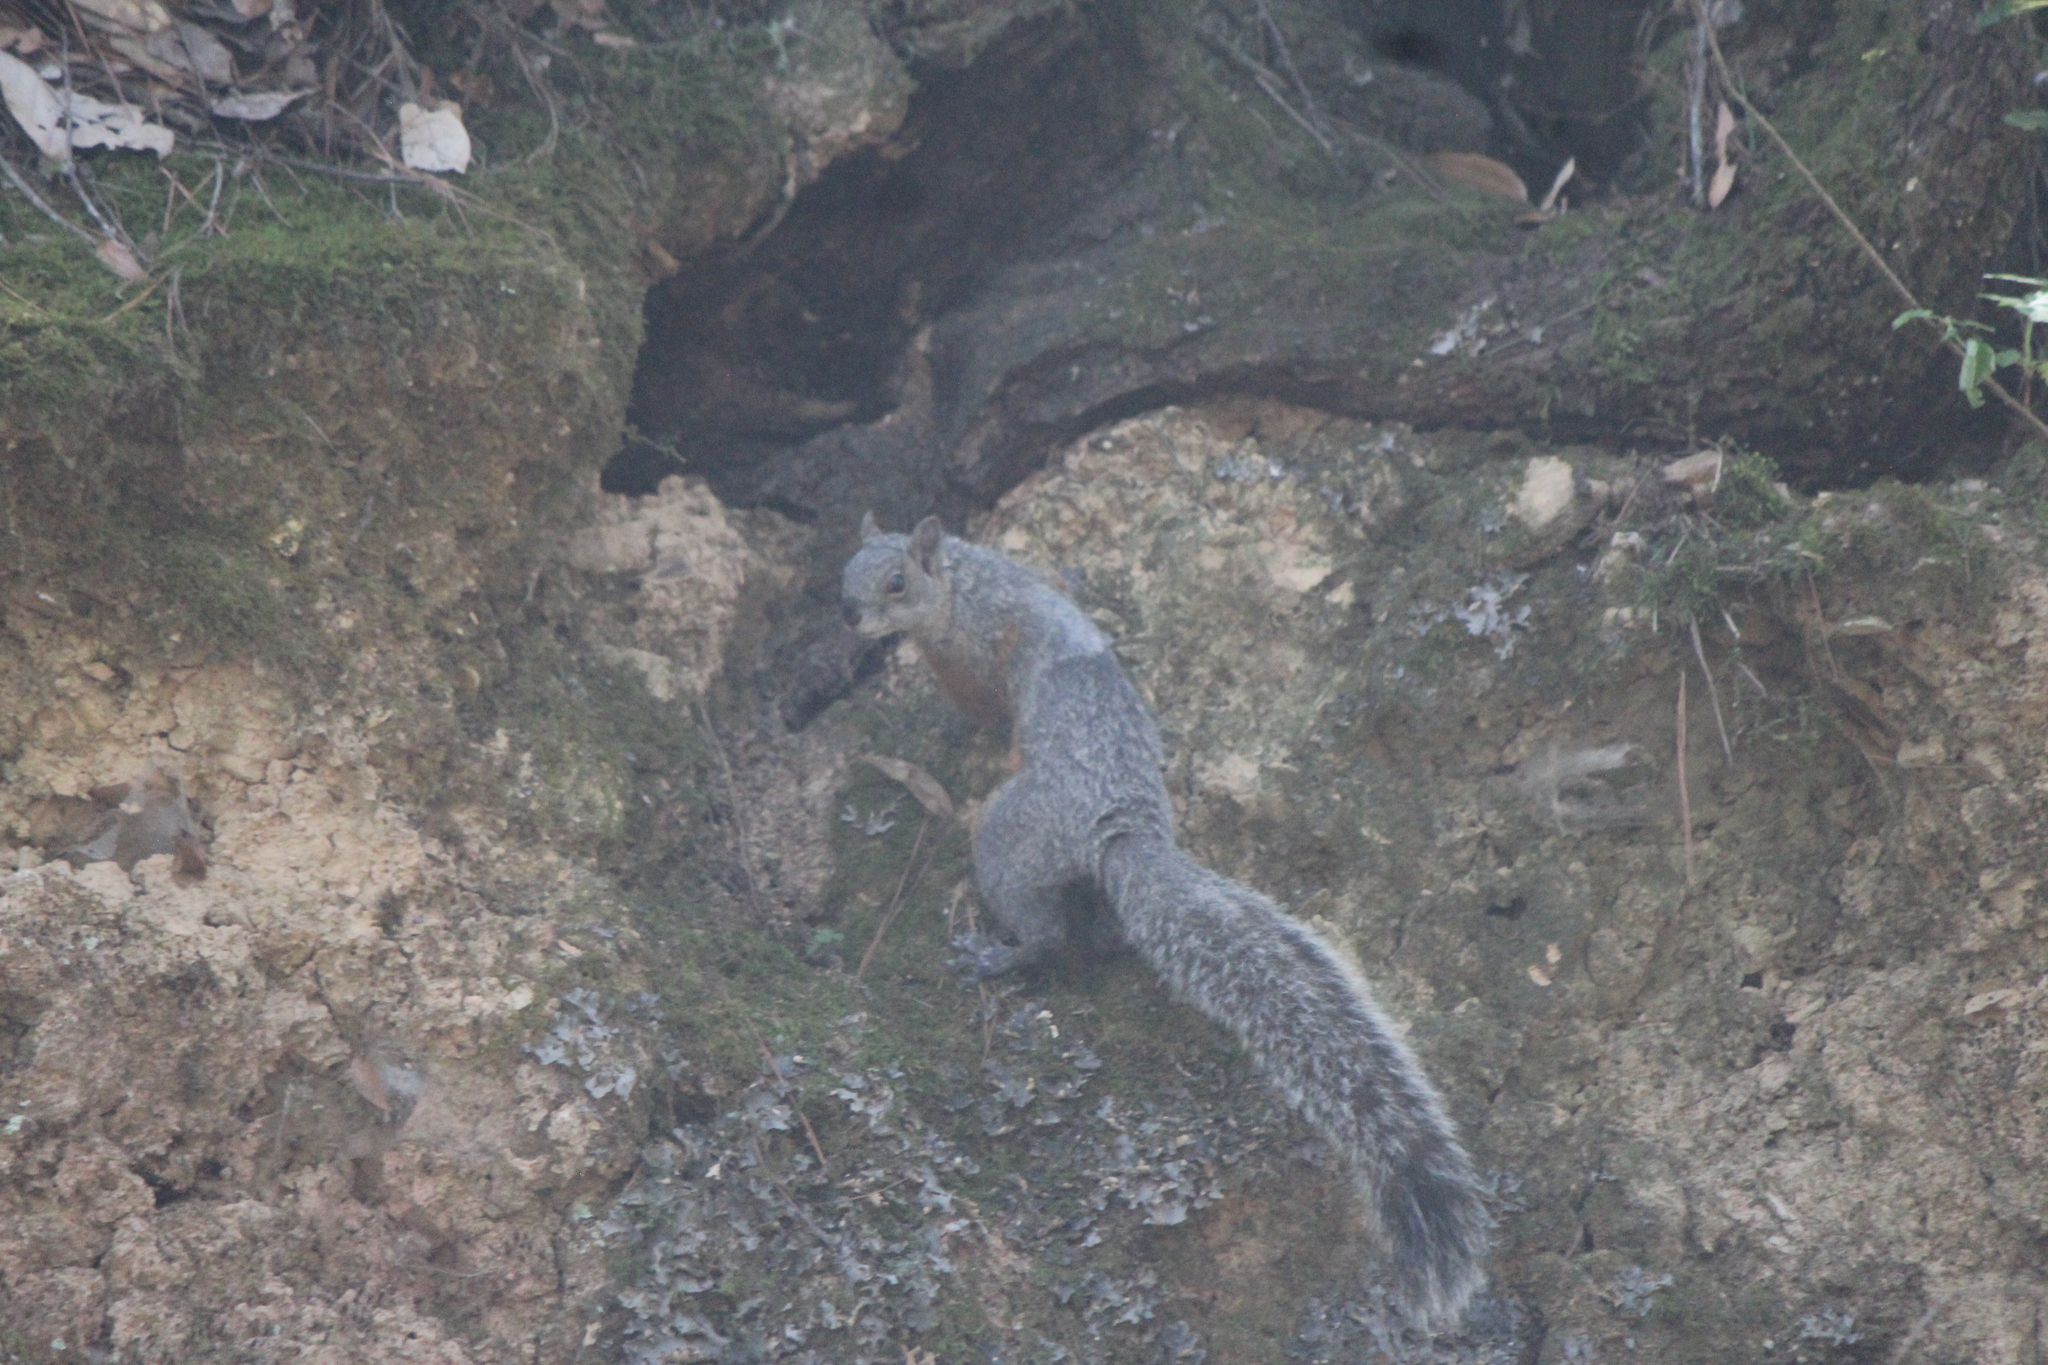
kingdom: Animalia
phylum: Chordata
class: Mammalia
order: Rodentia
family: Sciuridae
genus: Sciurus
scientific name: Sciurus aureogaster
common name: Red-bellied squirrel
